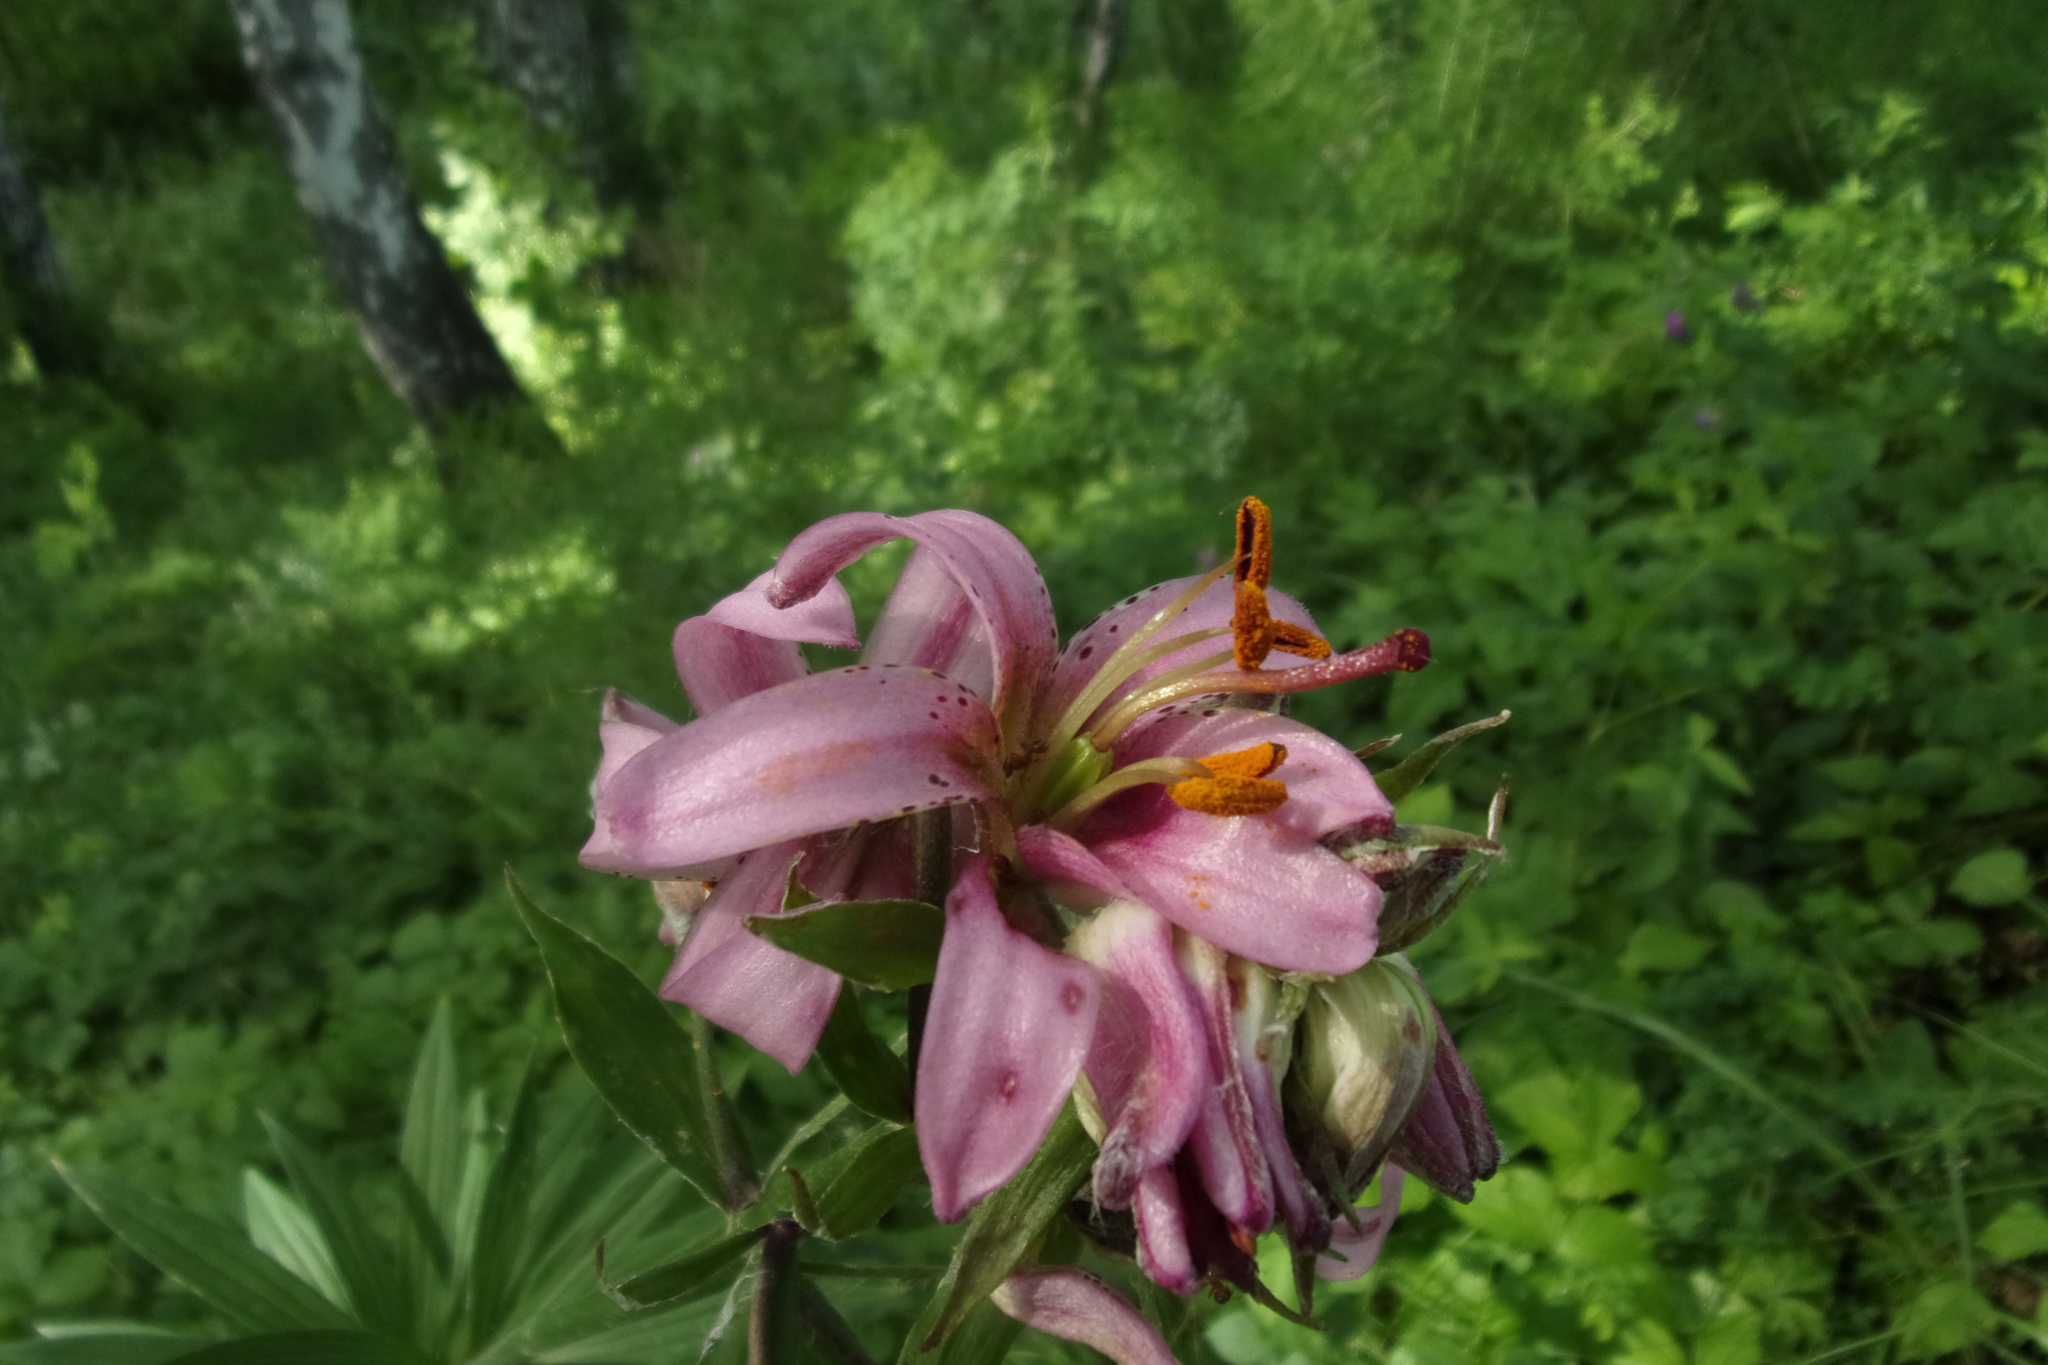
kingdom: Plantae
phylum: Tracheophyta
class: Liliopsida
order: Liliales
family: Liliaceae
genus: Lilium
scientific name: Lilium martagon
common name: Martagon lily
